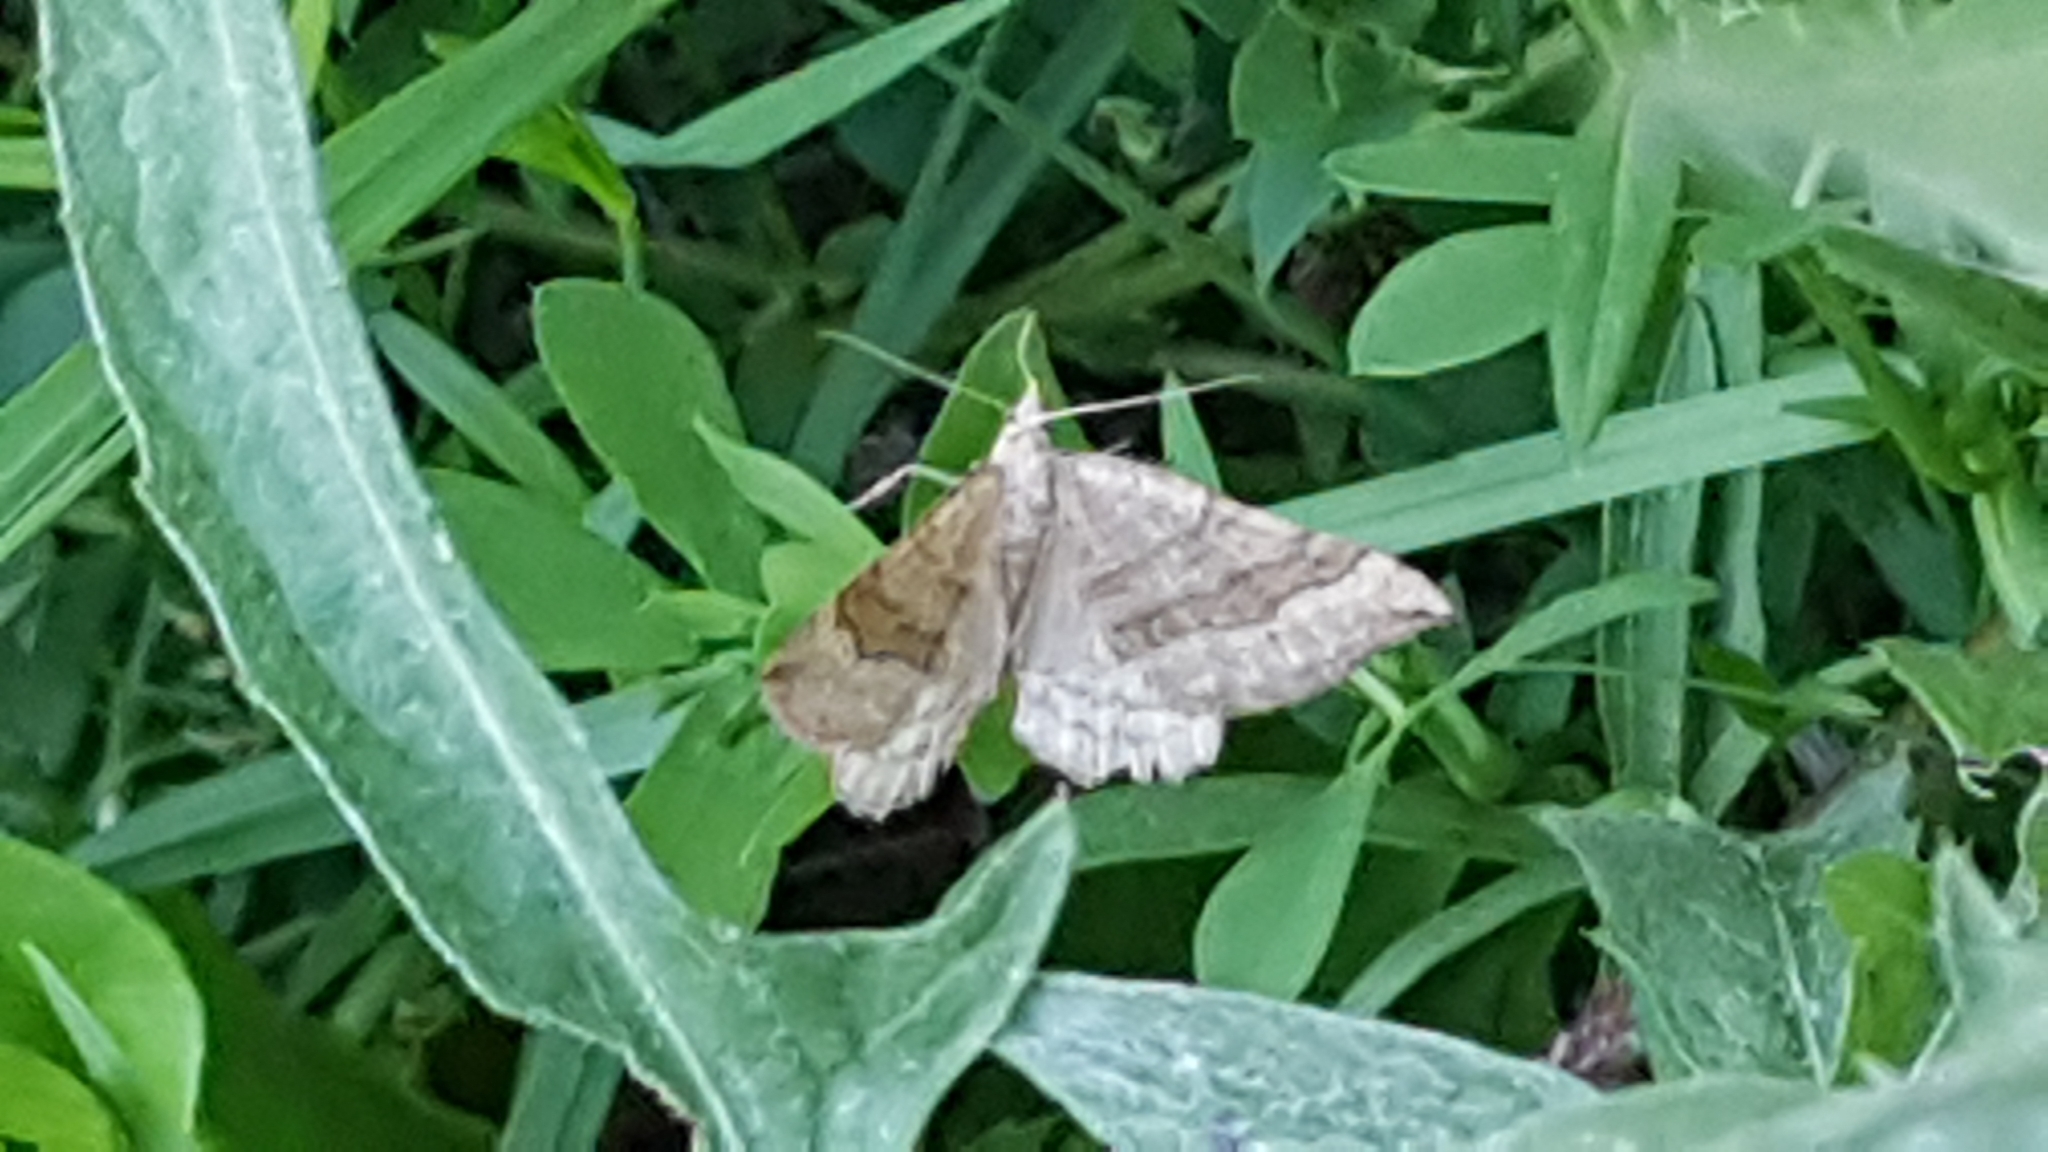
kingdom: Animalia
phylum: Arthropoda
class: Insecta
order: Lepidoptera
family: Geometridae
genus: Scotopteryx
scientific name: Scotopteryx chenopodiata
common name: Shaded broad-bar
